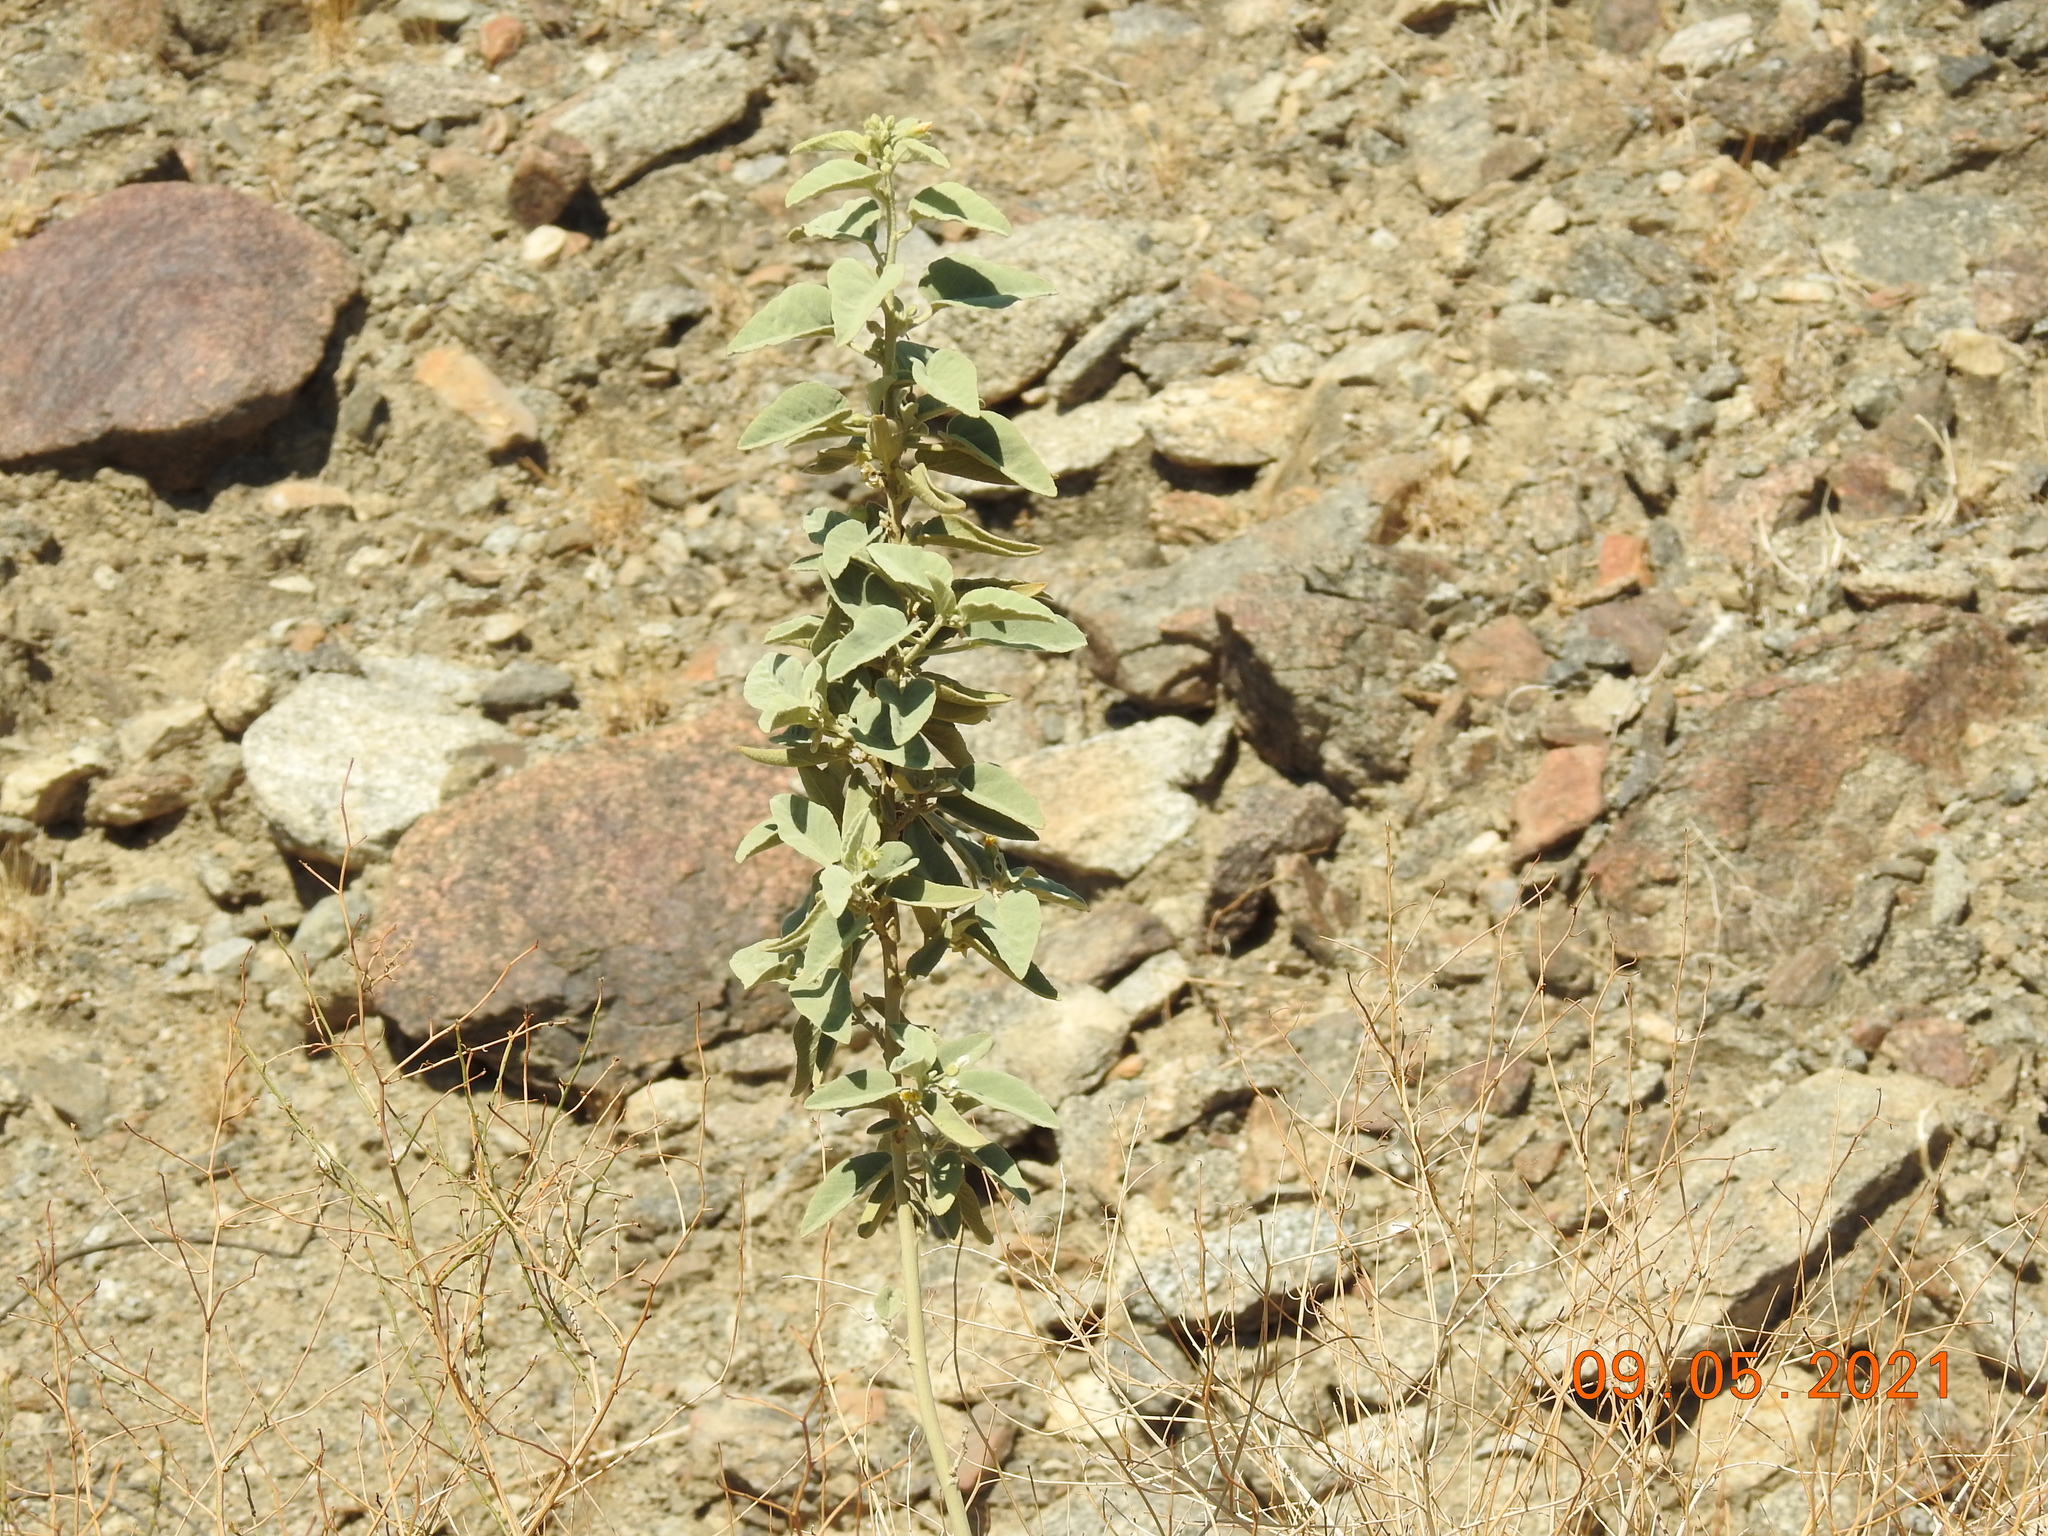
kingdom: Plantae
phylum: Tracheophyta
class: Magnoliopsida
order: Malvales
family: Malvaceae
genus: Horsfordia
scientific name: Horsfordia newberryi
